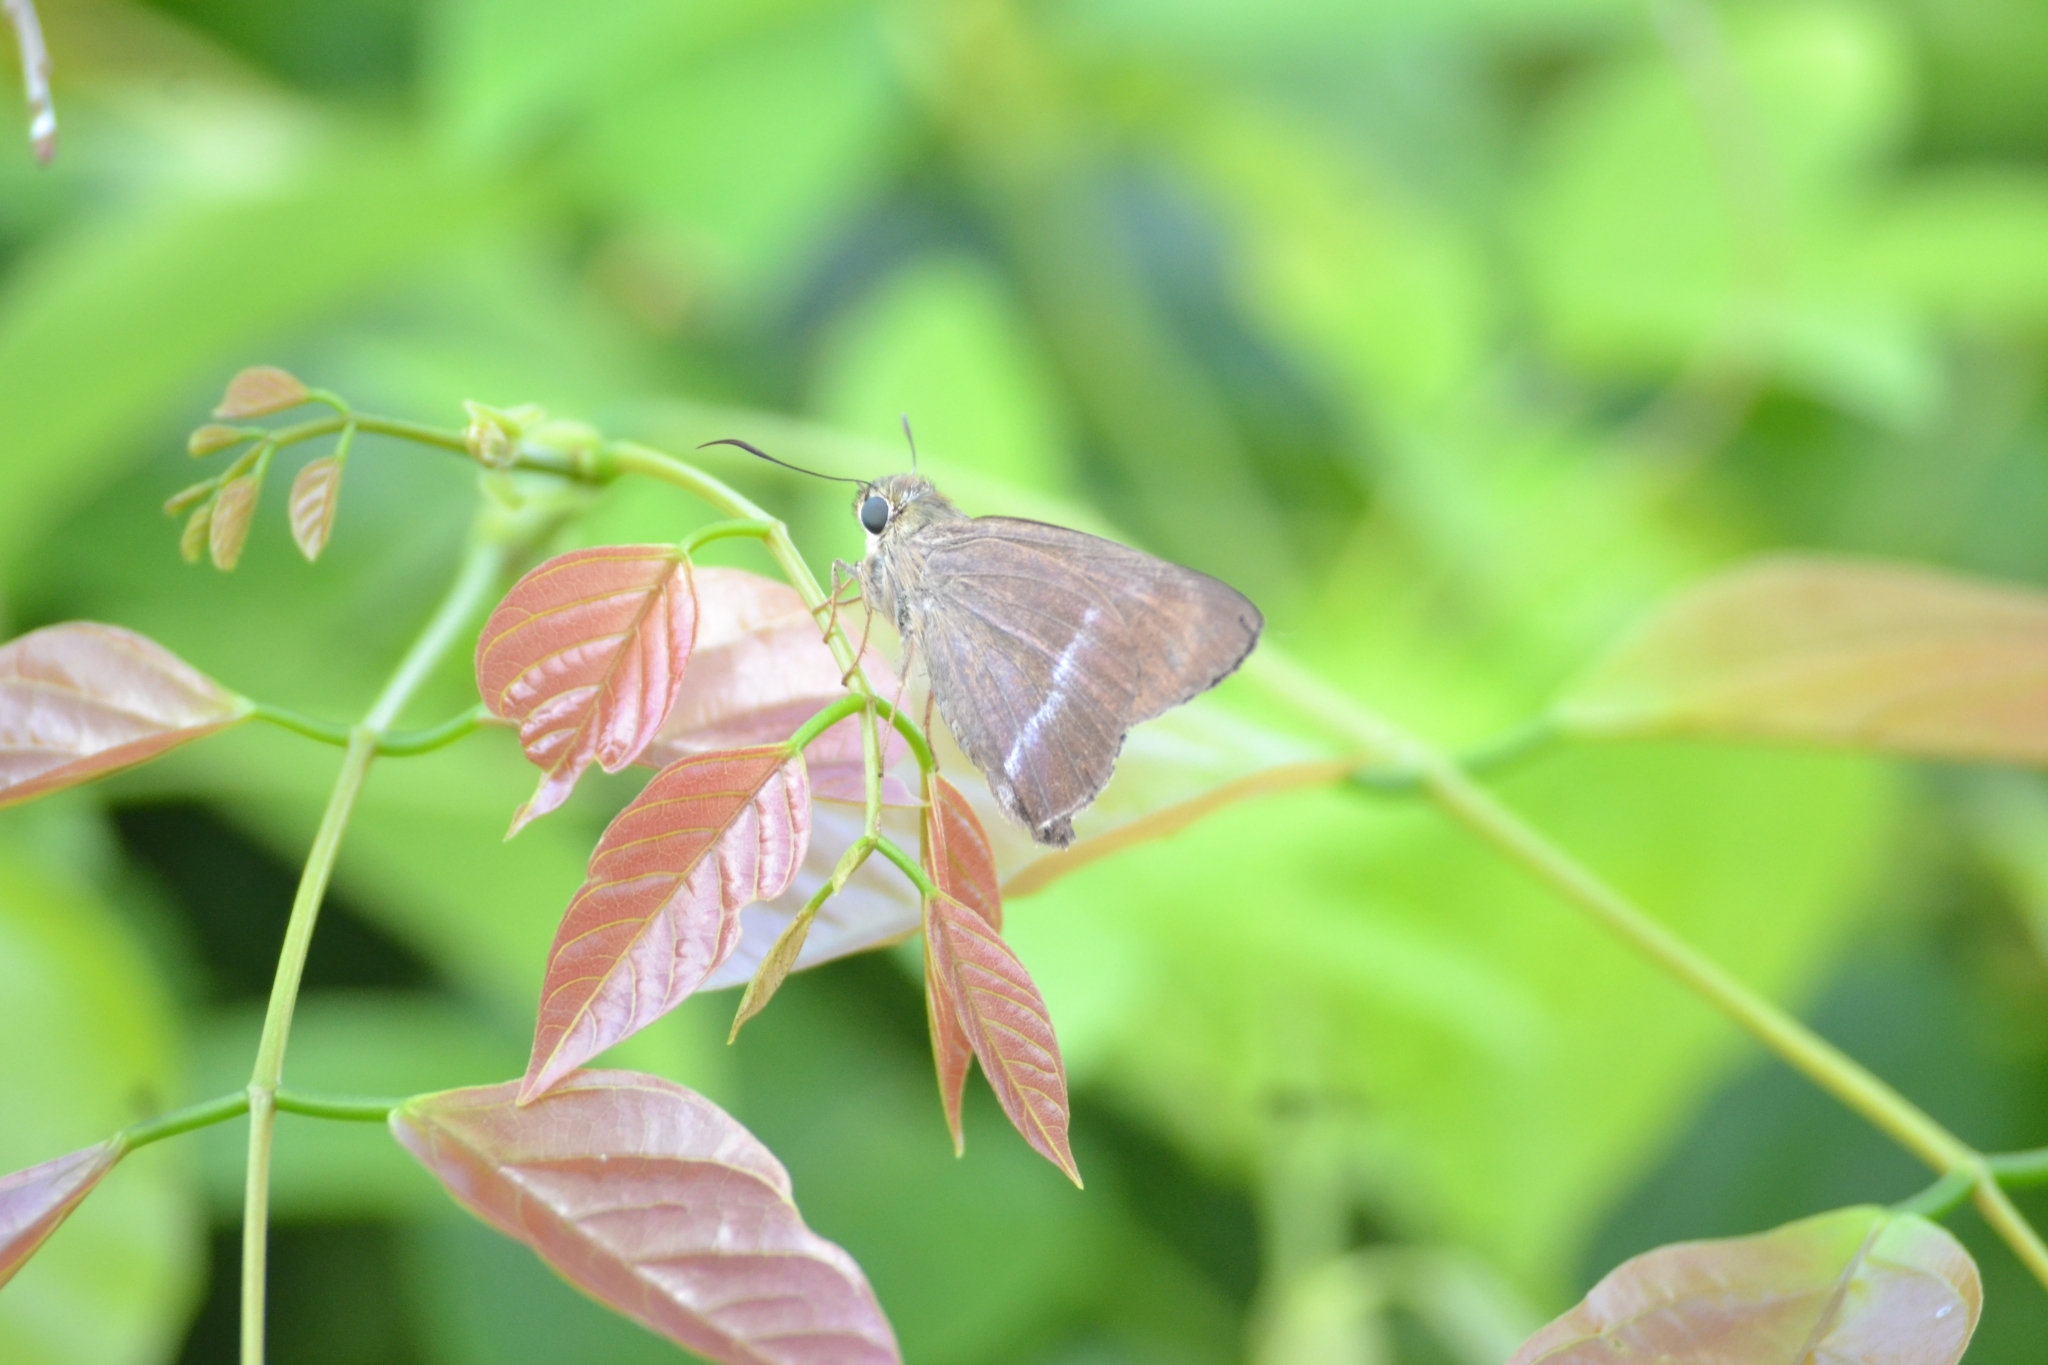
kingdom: Animalia
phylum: Arthropoda
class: Insecta
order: Lepidoptera
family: Hesperiidae
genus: Hasora
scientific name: Hasora chromus
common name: Common banded awl
